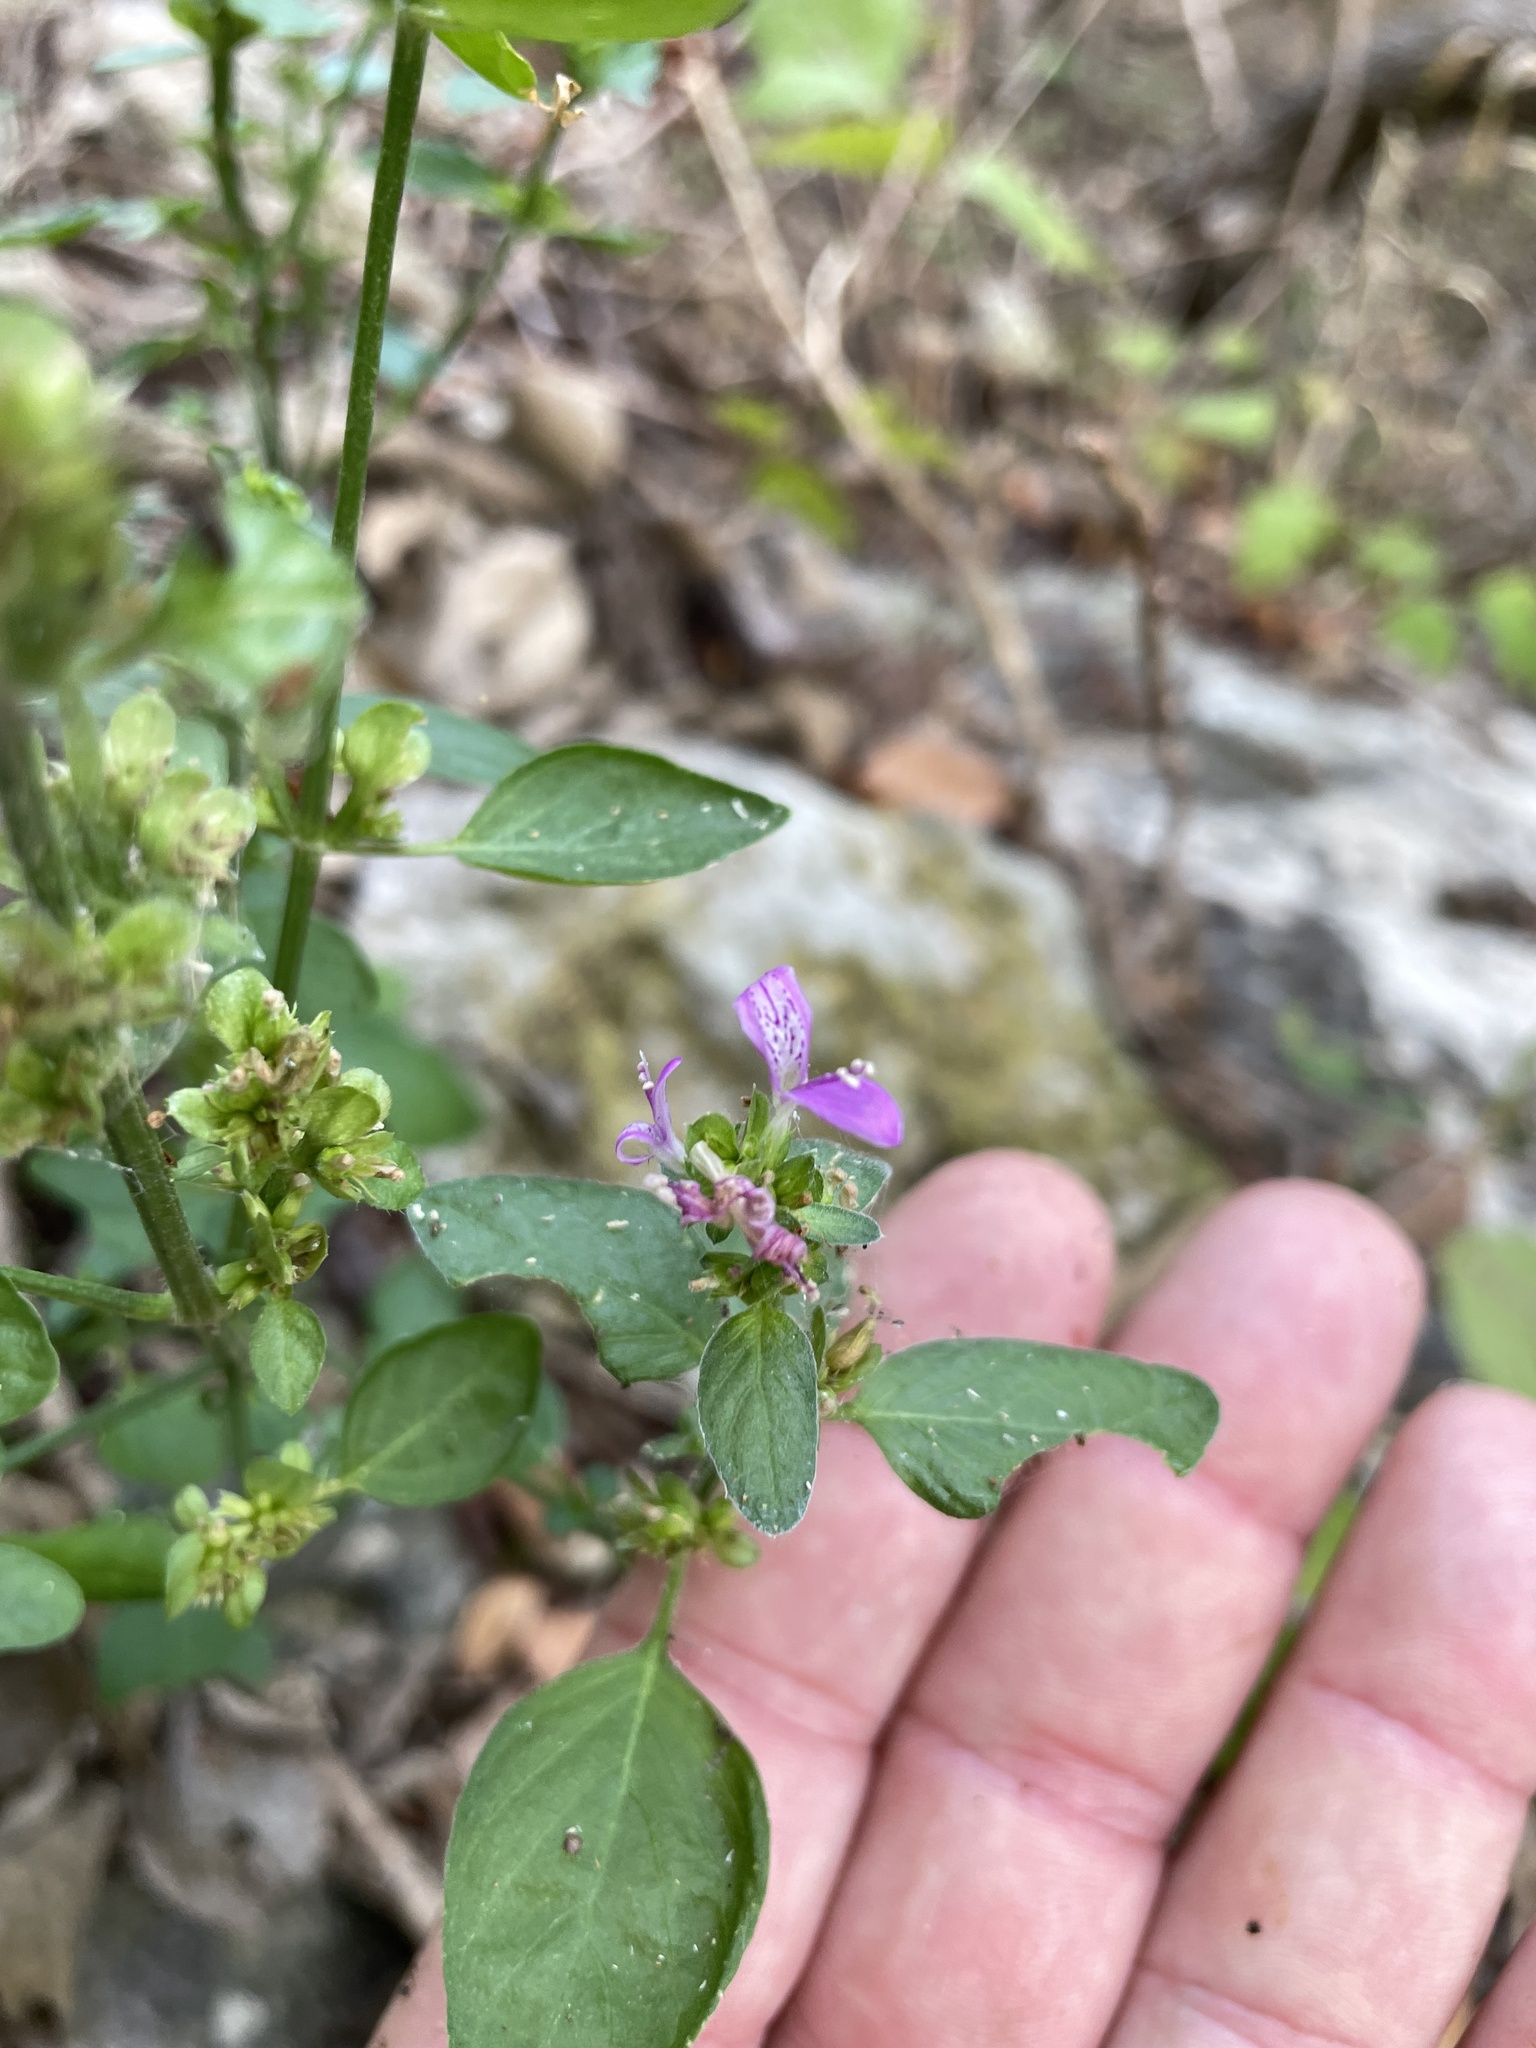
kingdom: Plantae
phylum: Tracheophyta
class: Magnoliopsida
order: Lamiales
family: Acanthaceae
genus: Dicliptera
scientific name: Dicliptera brachiata
